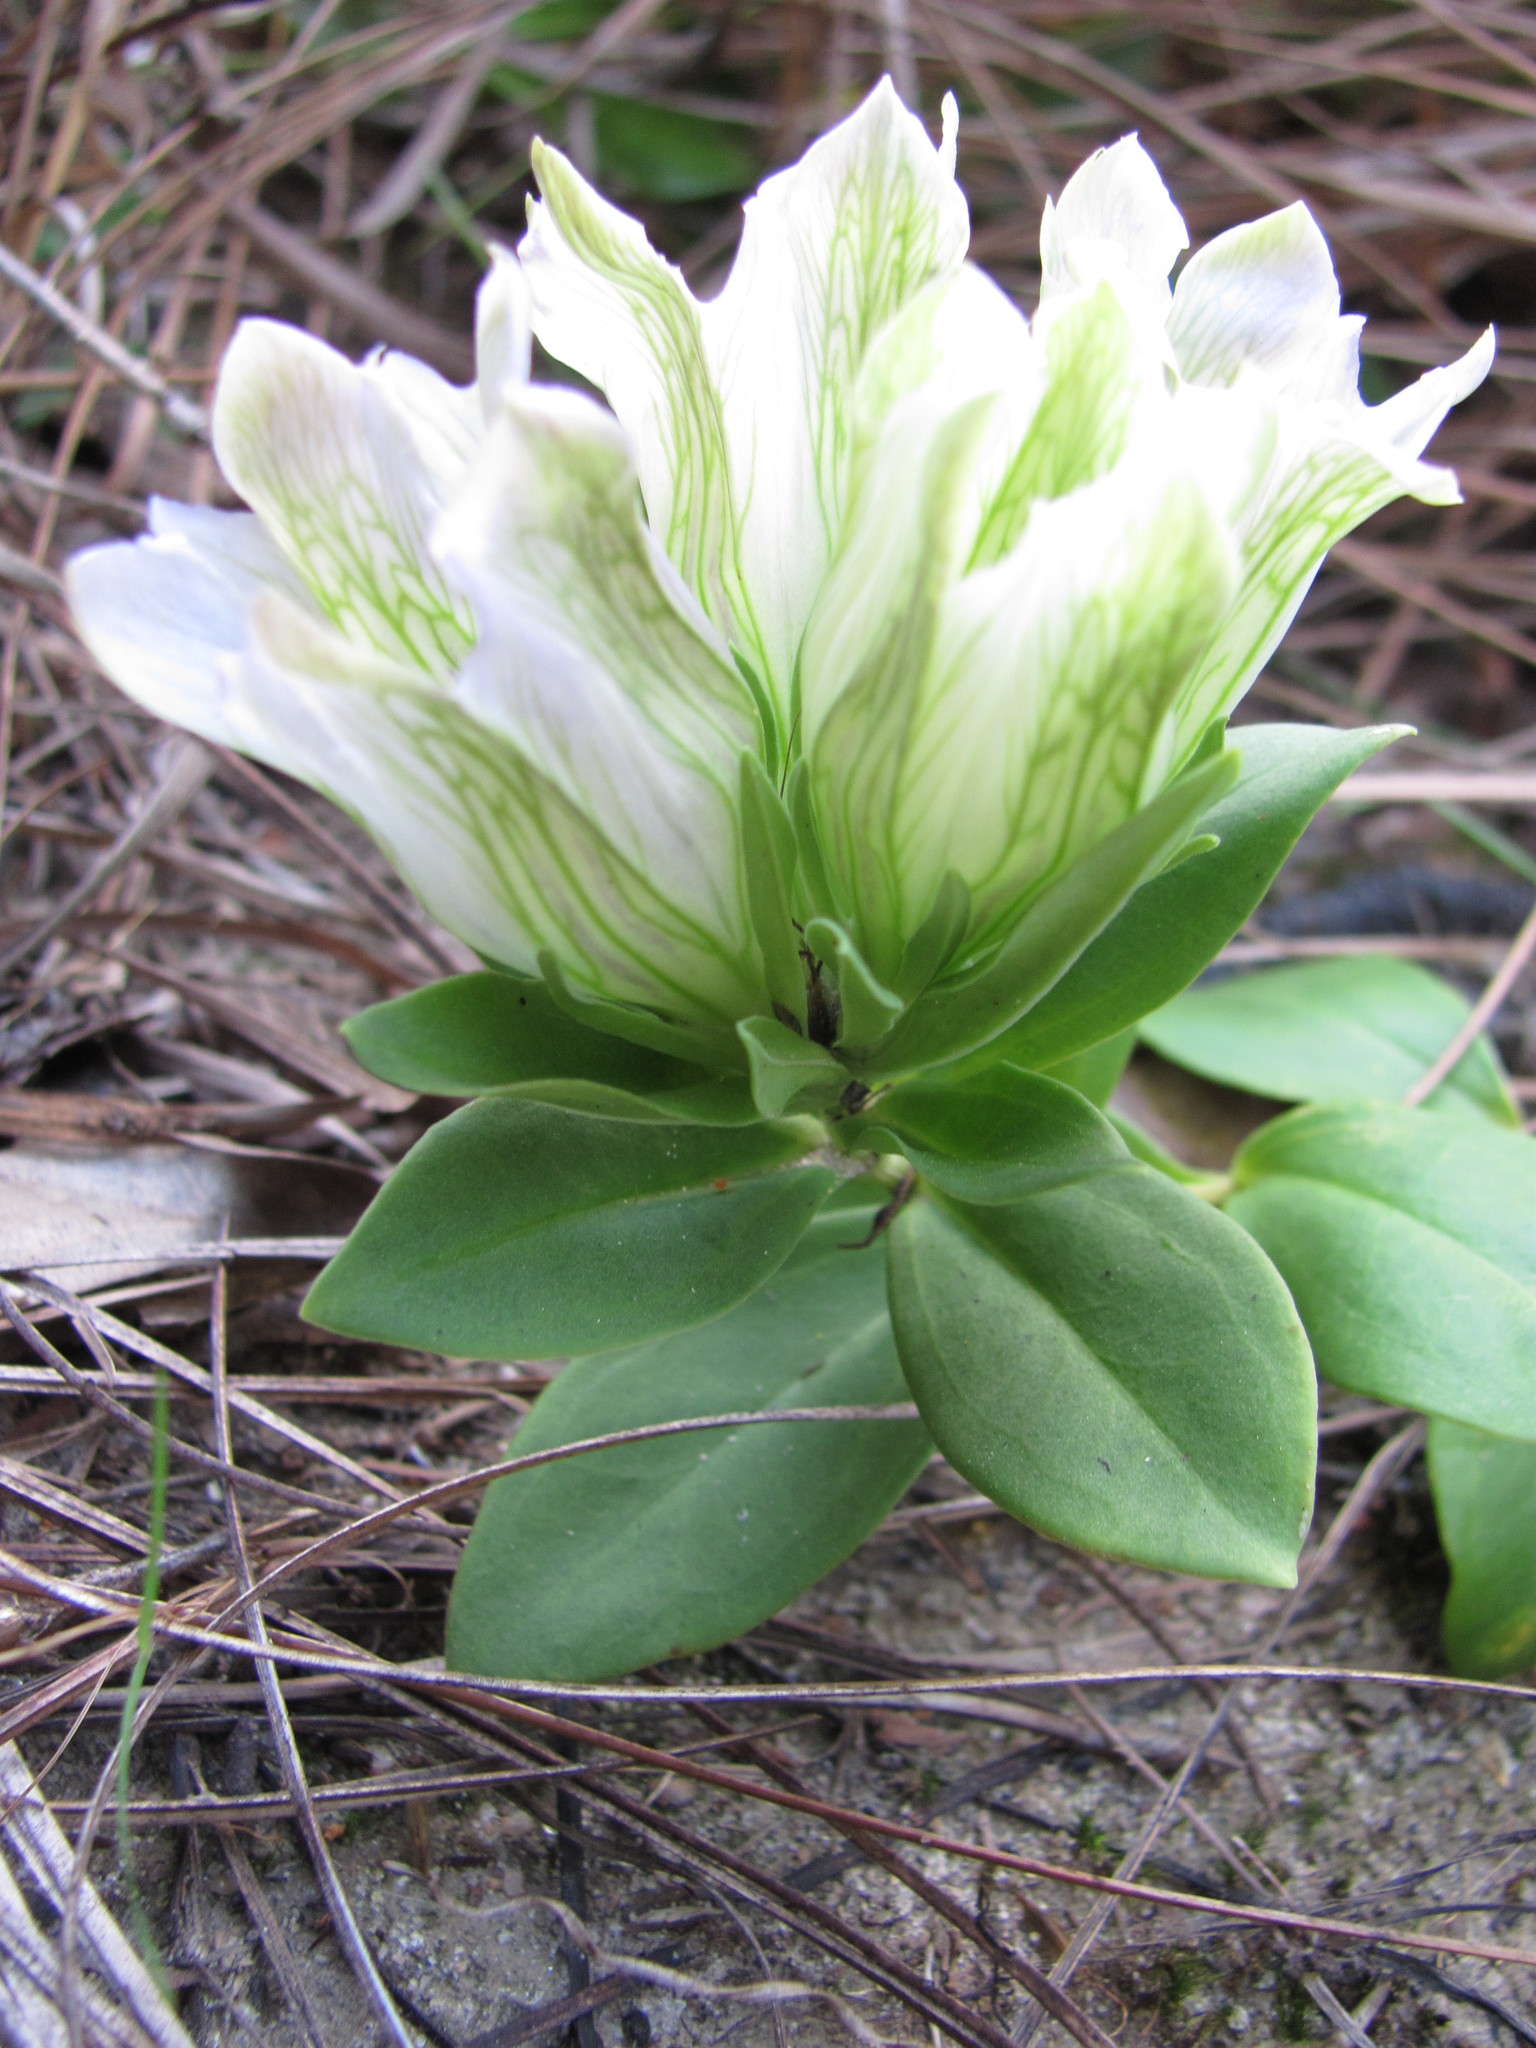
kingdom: Plantae
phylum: Tracheophyta
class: Magnoliopsida
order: Gentianales
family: Gentianaceae
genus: Gentiana
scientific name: Gentiana villosa
